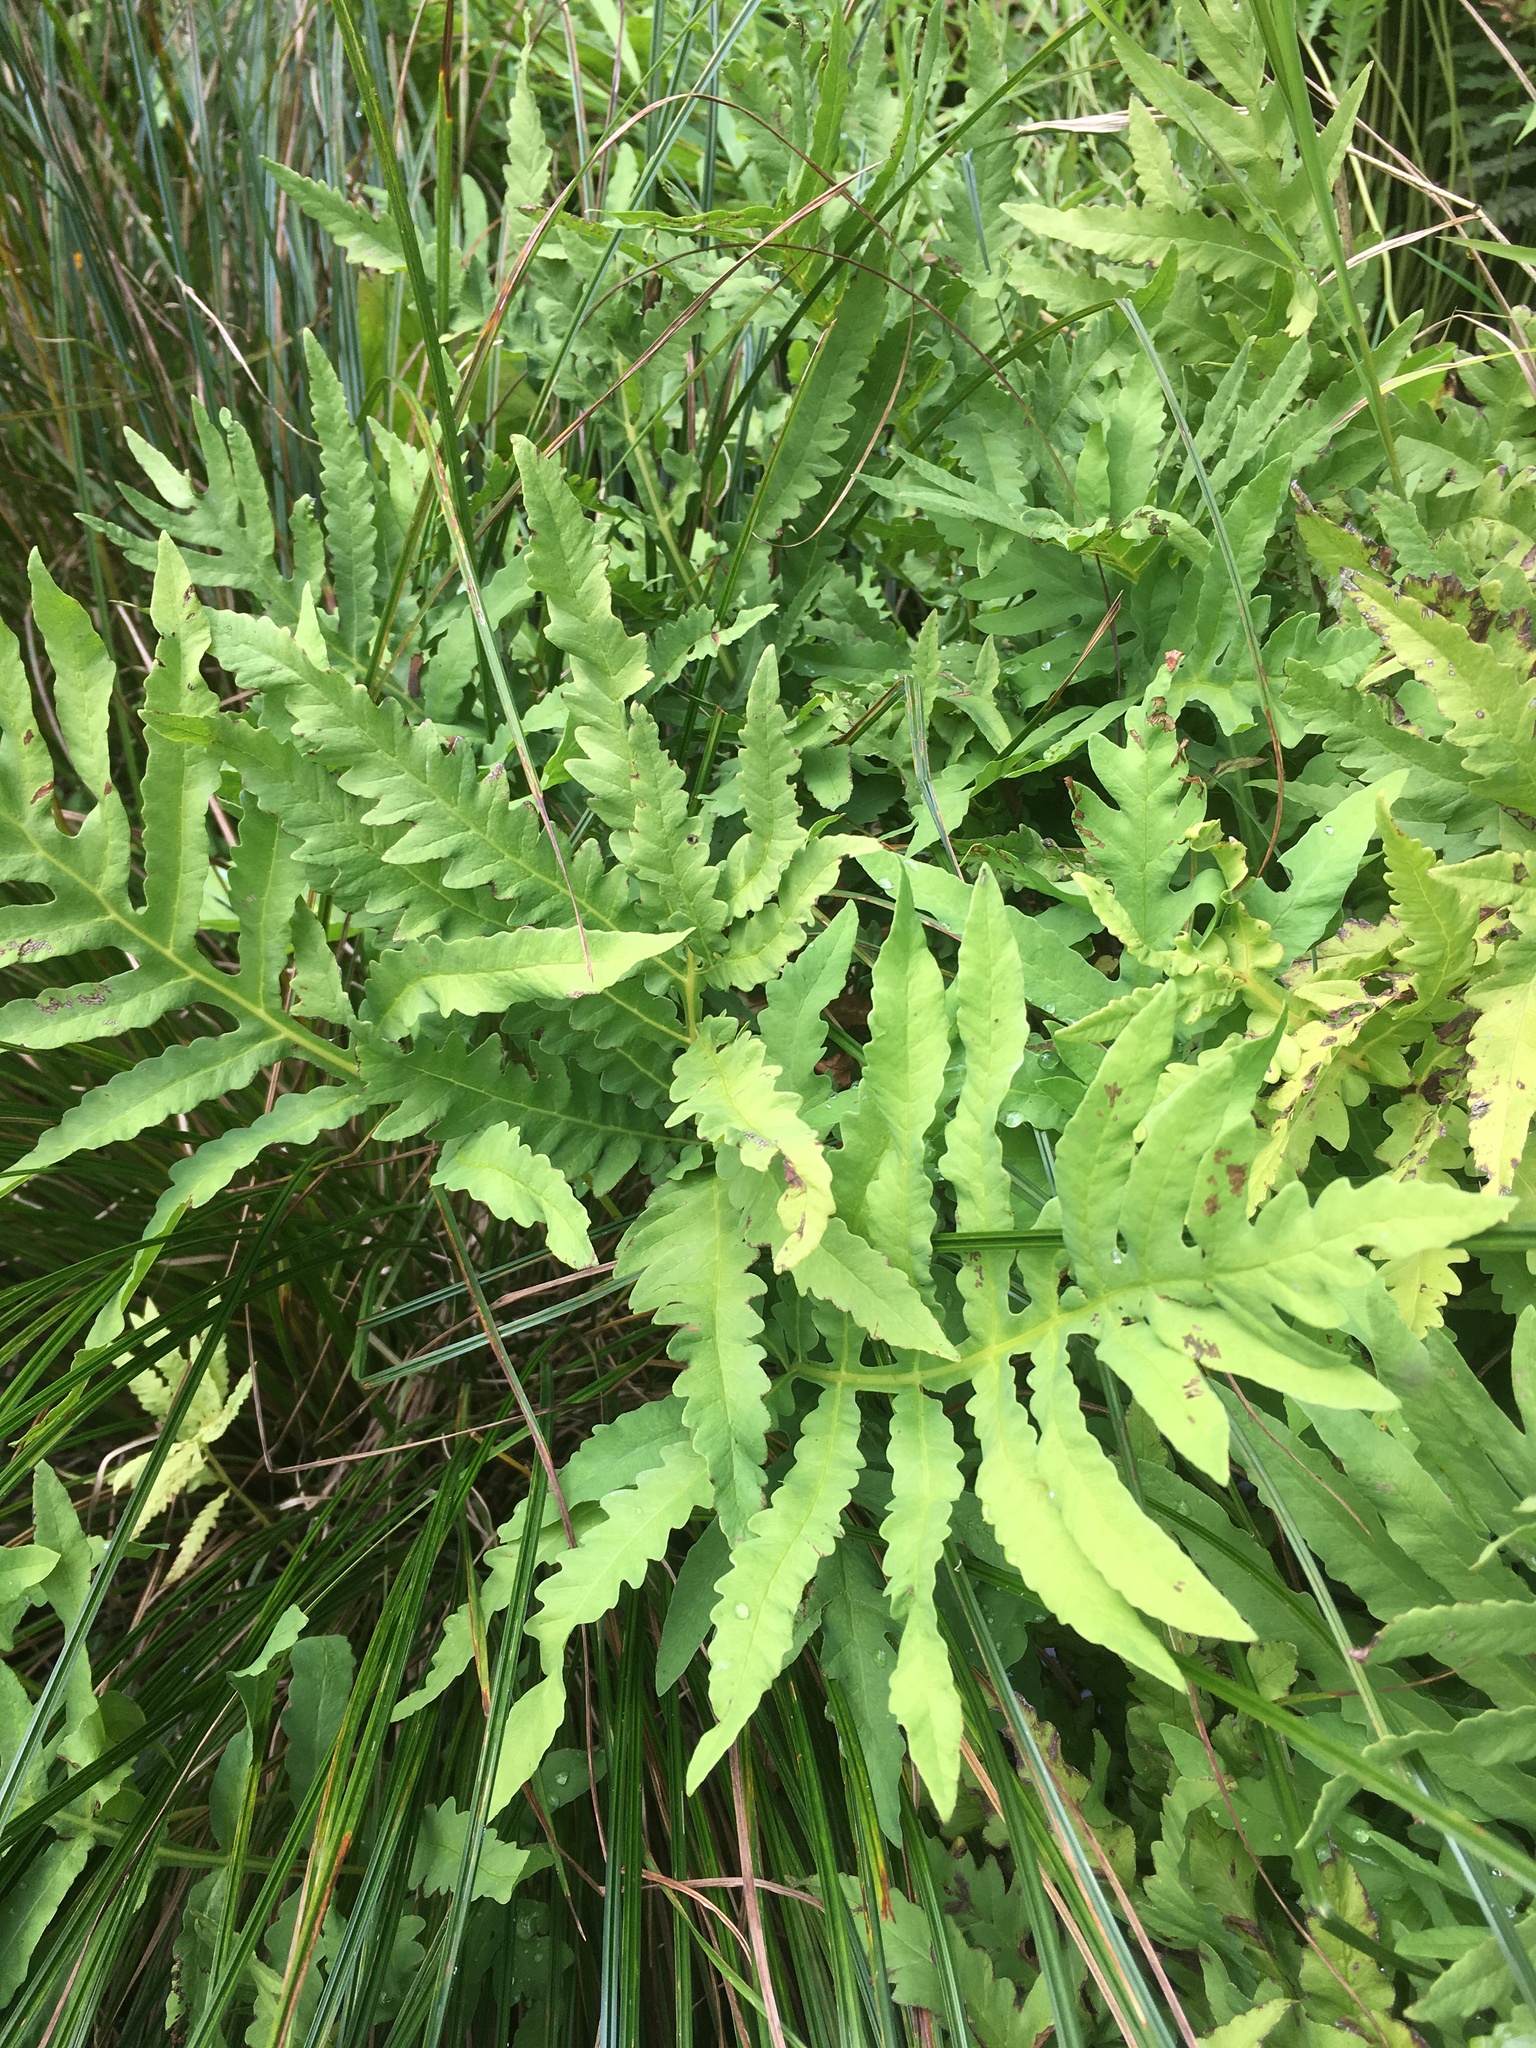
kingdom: Plantae
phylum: Tracheophyta
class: Polypodiopsida
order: Polypodiales
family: Onocleaceae
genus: Onoclea
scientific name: Onoclea sensibilis
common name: Sensitive fern
